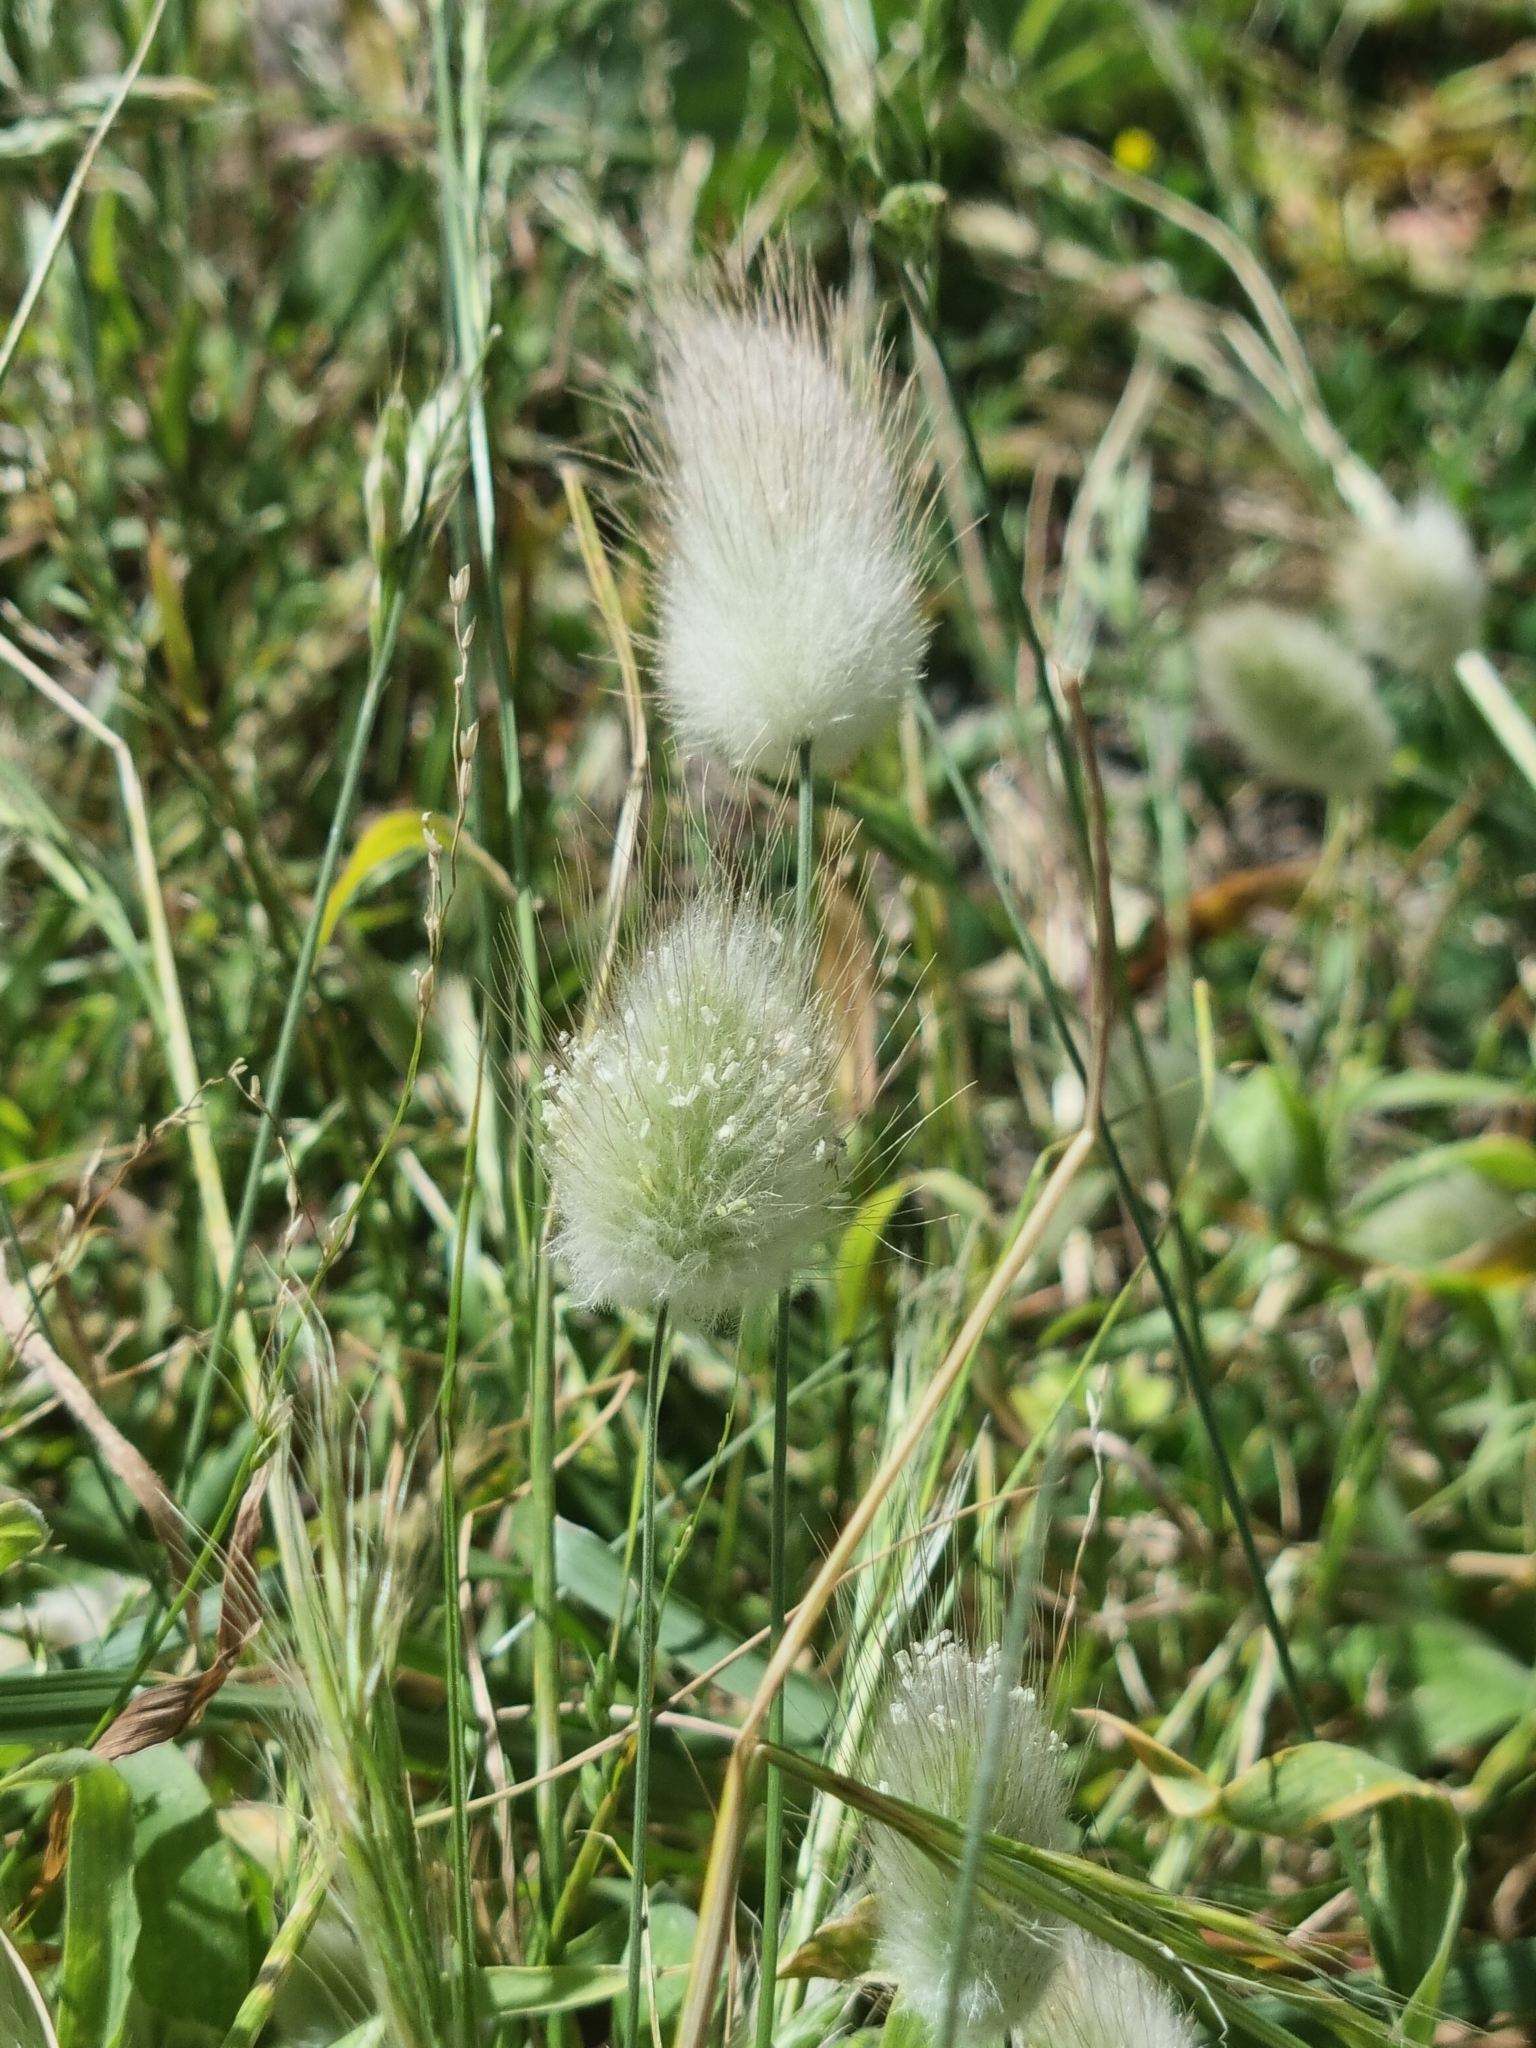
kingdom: Plantae
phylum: Tracheophyta
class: Liliopsida
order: Poales
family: Poaceae
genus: Lagurus
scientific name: Lagurus ovatus
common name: Hare's-tail
